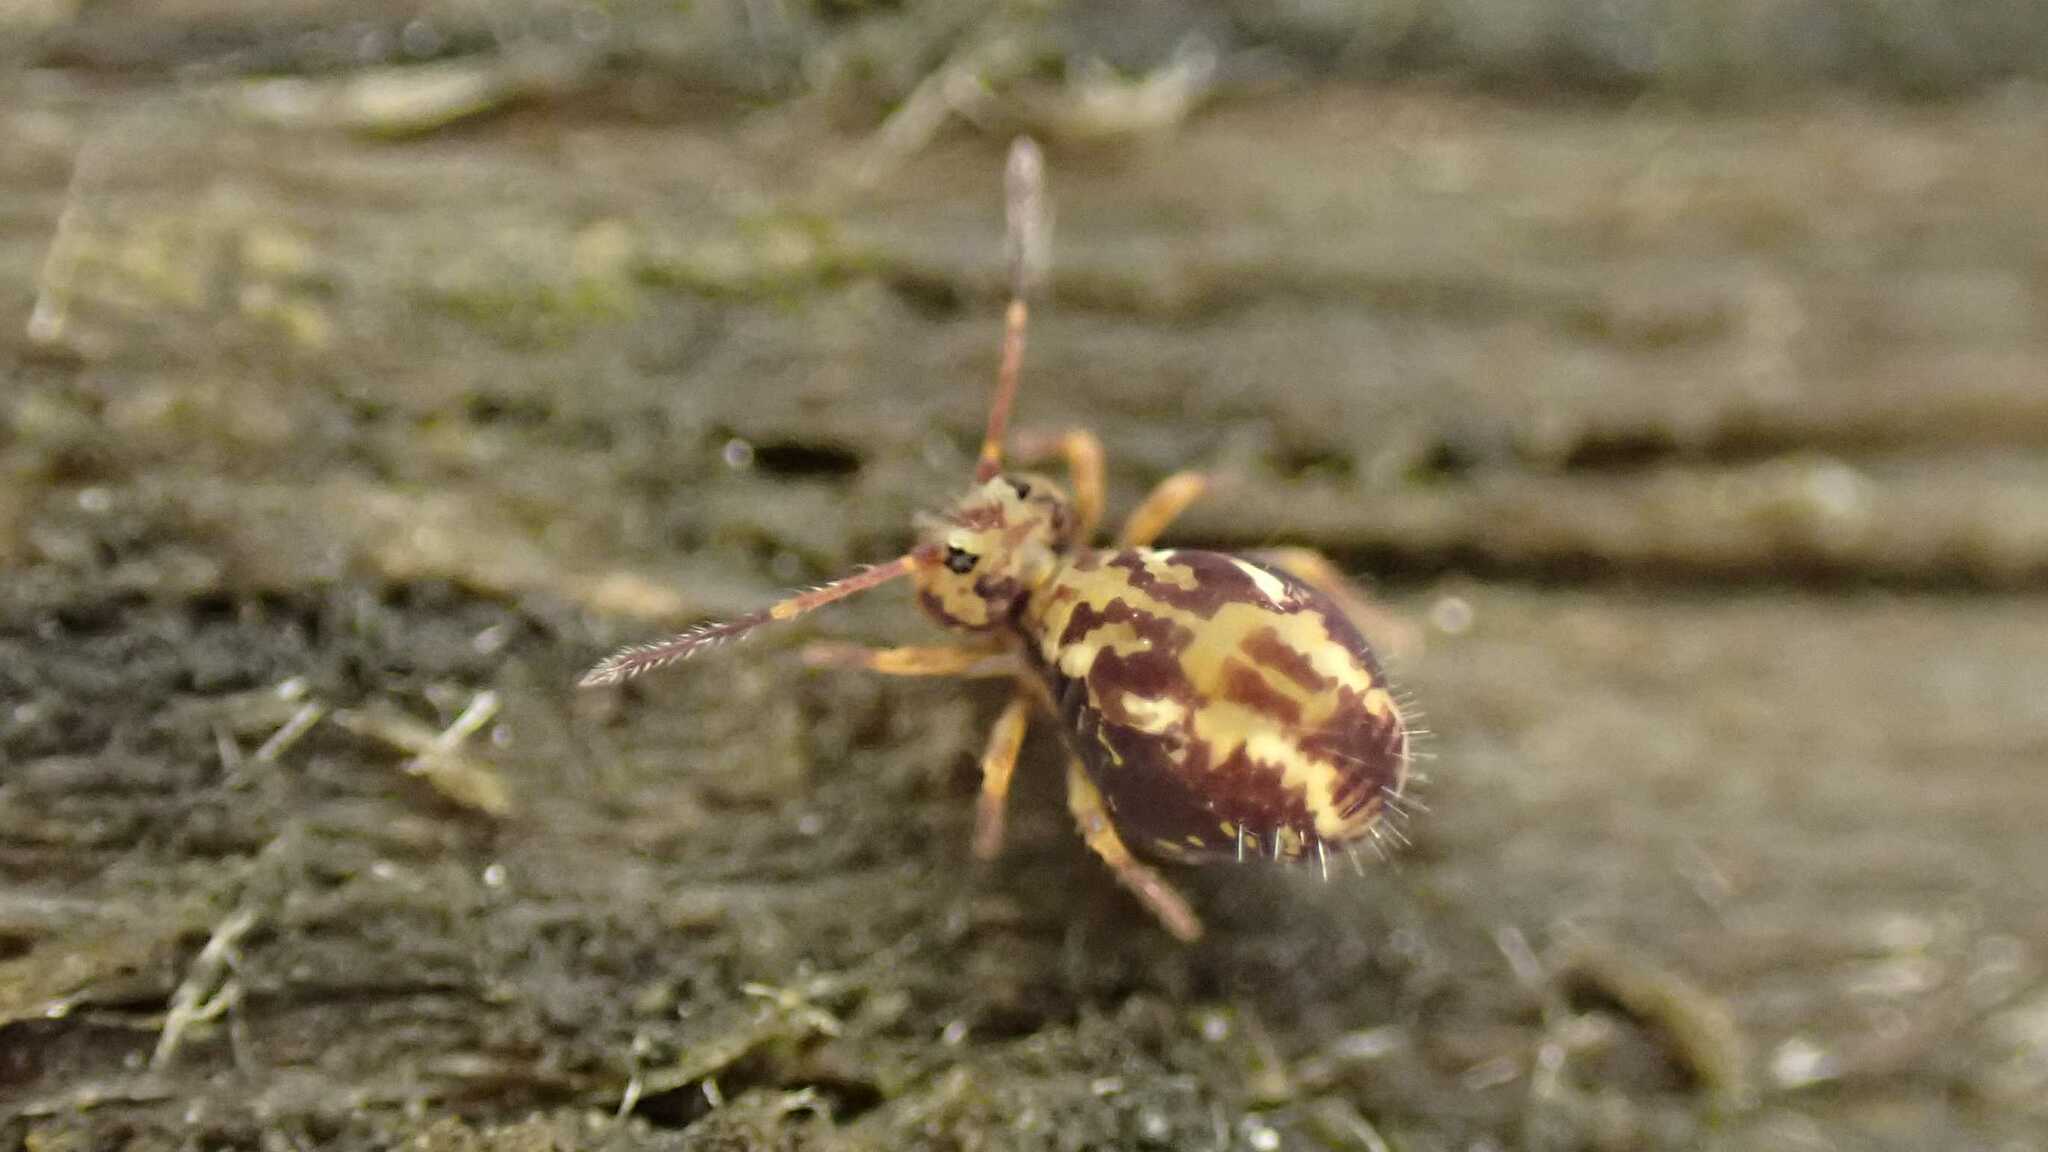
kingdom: Animalia
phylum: Arthropoda
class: Collembola
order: Symphypleona
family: Dicyrtomidae
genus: Dicyrtomina
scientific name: Dicyrtomina saundersi
